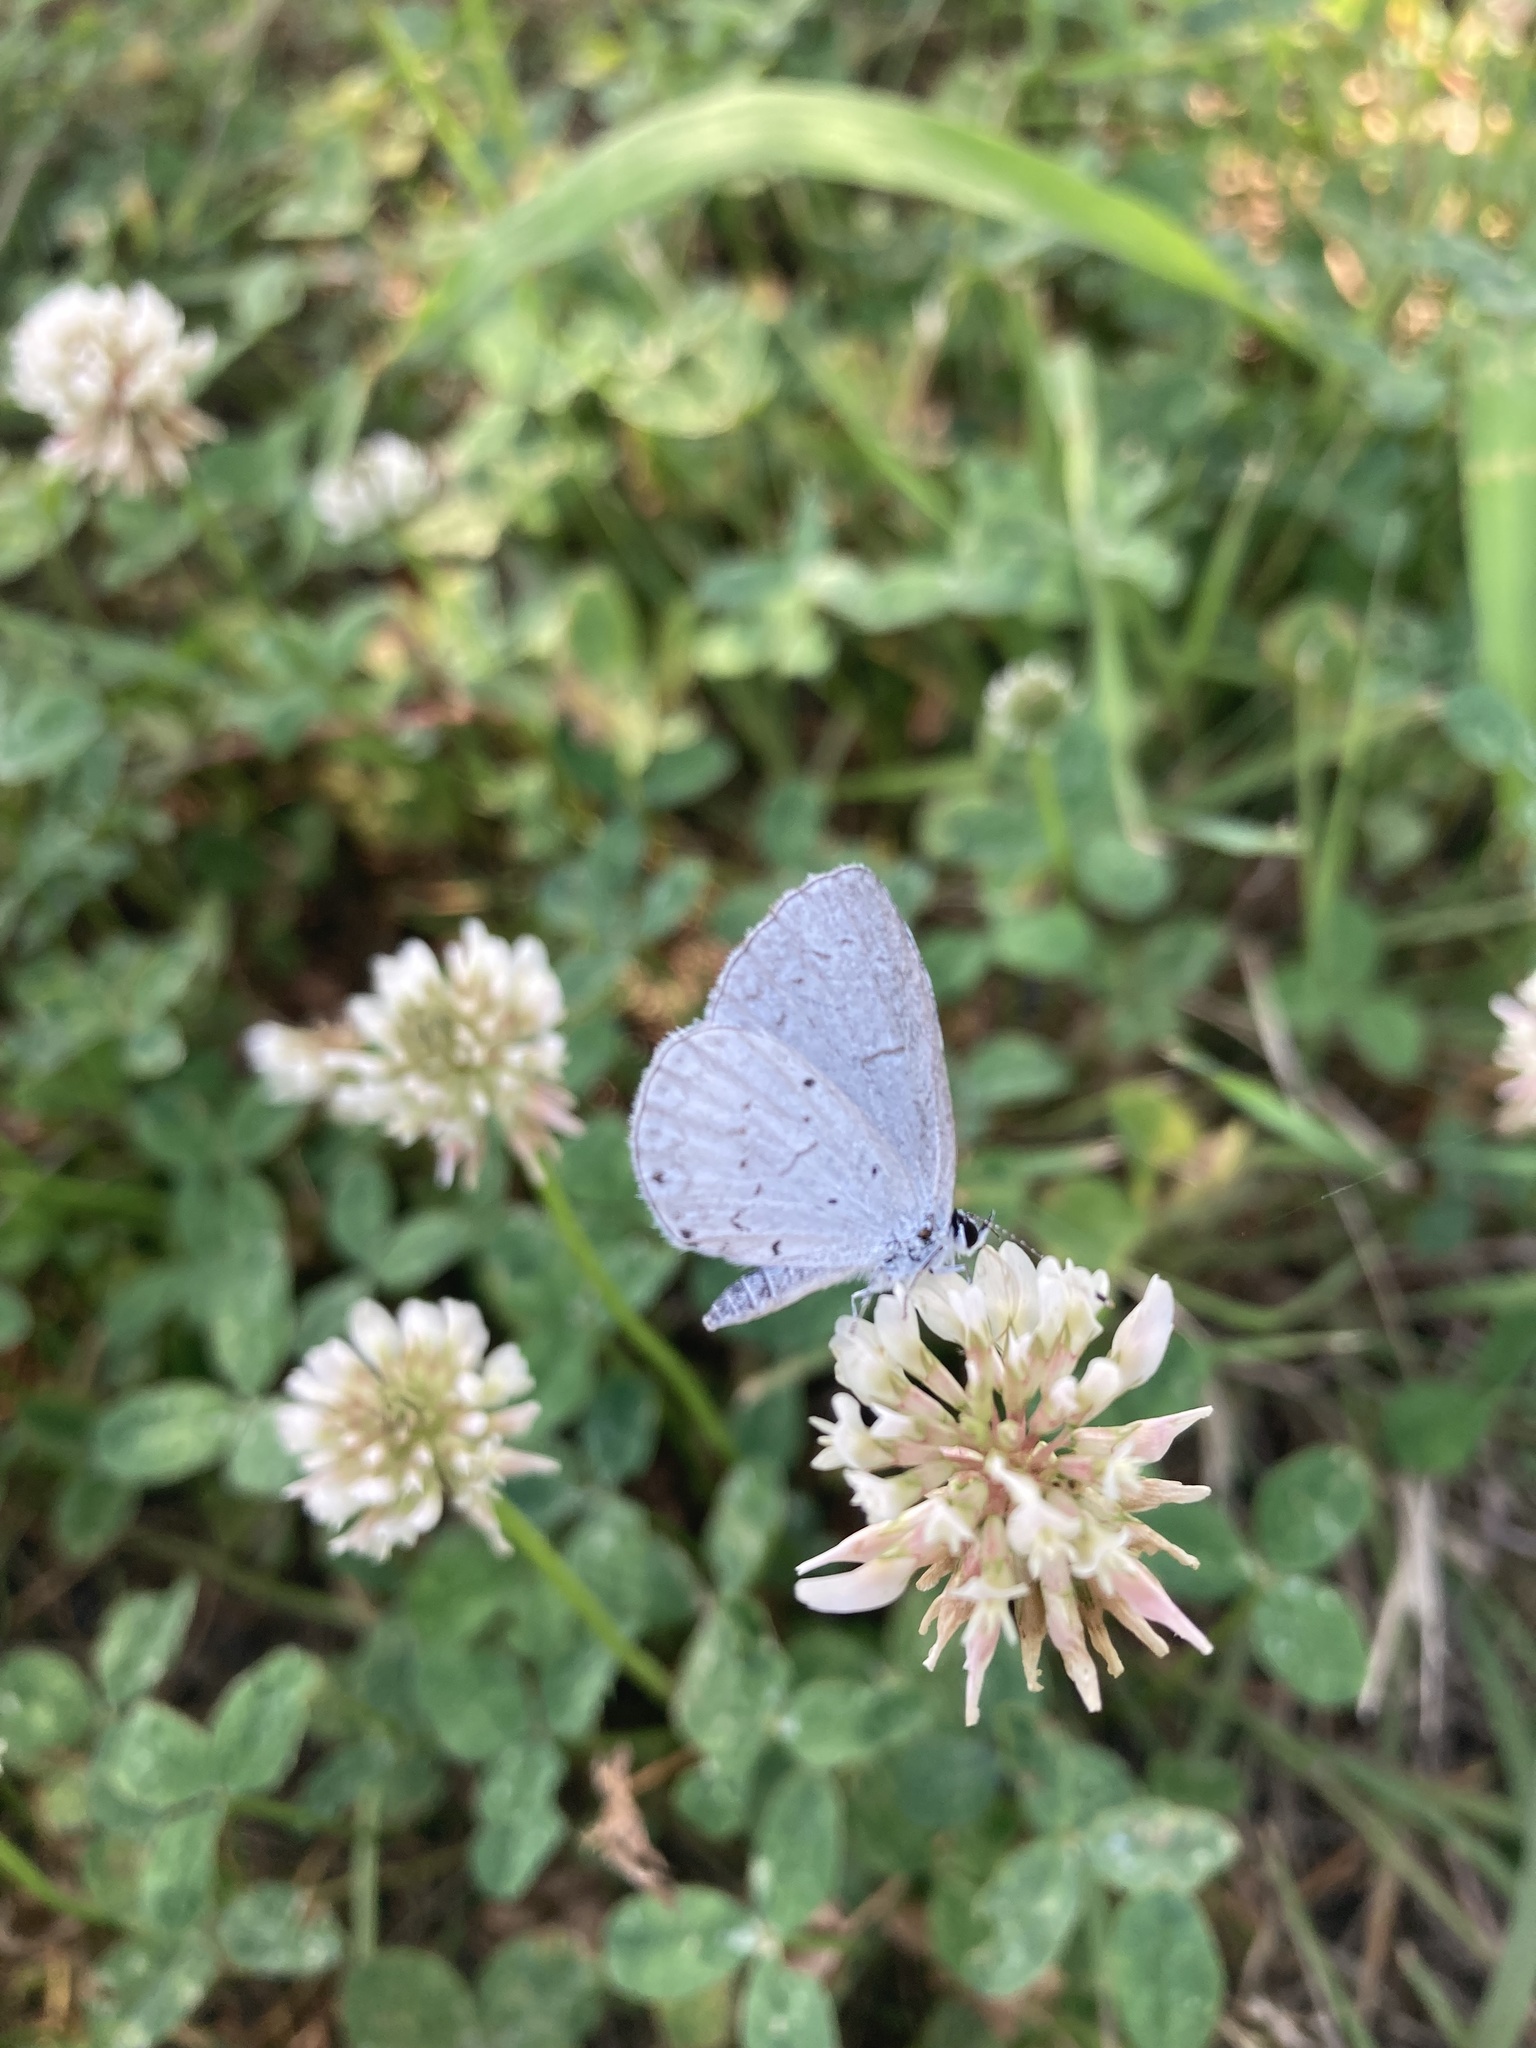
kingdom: Animalia
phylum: Arthropoda
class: Insecta
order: Lepidoptera
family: Lycaenidae
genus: Cyaniris
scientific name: Cyaniris neglecta
